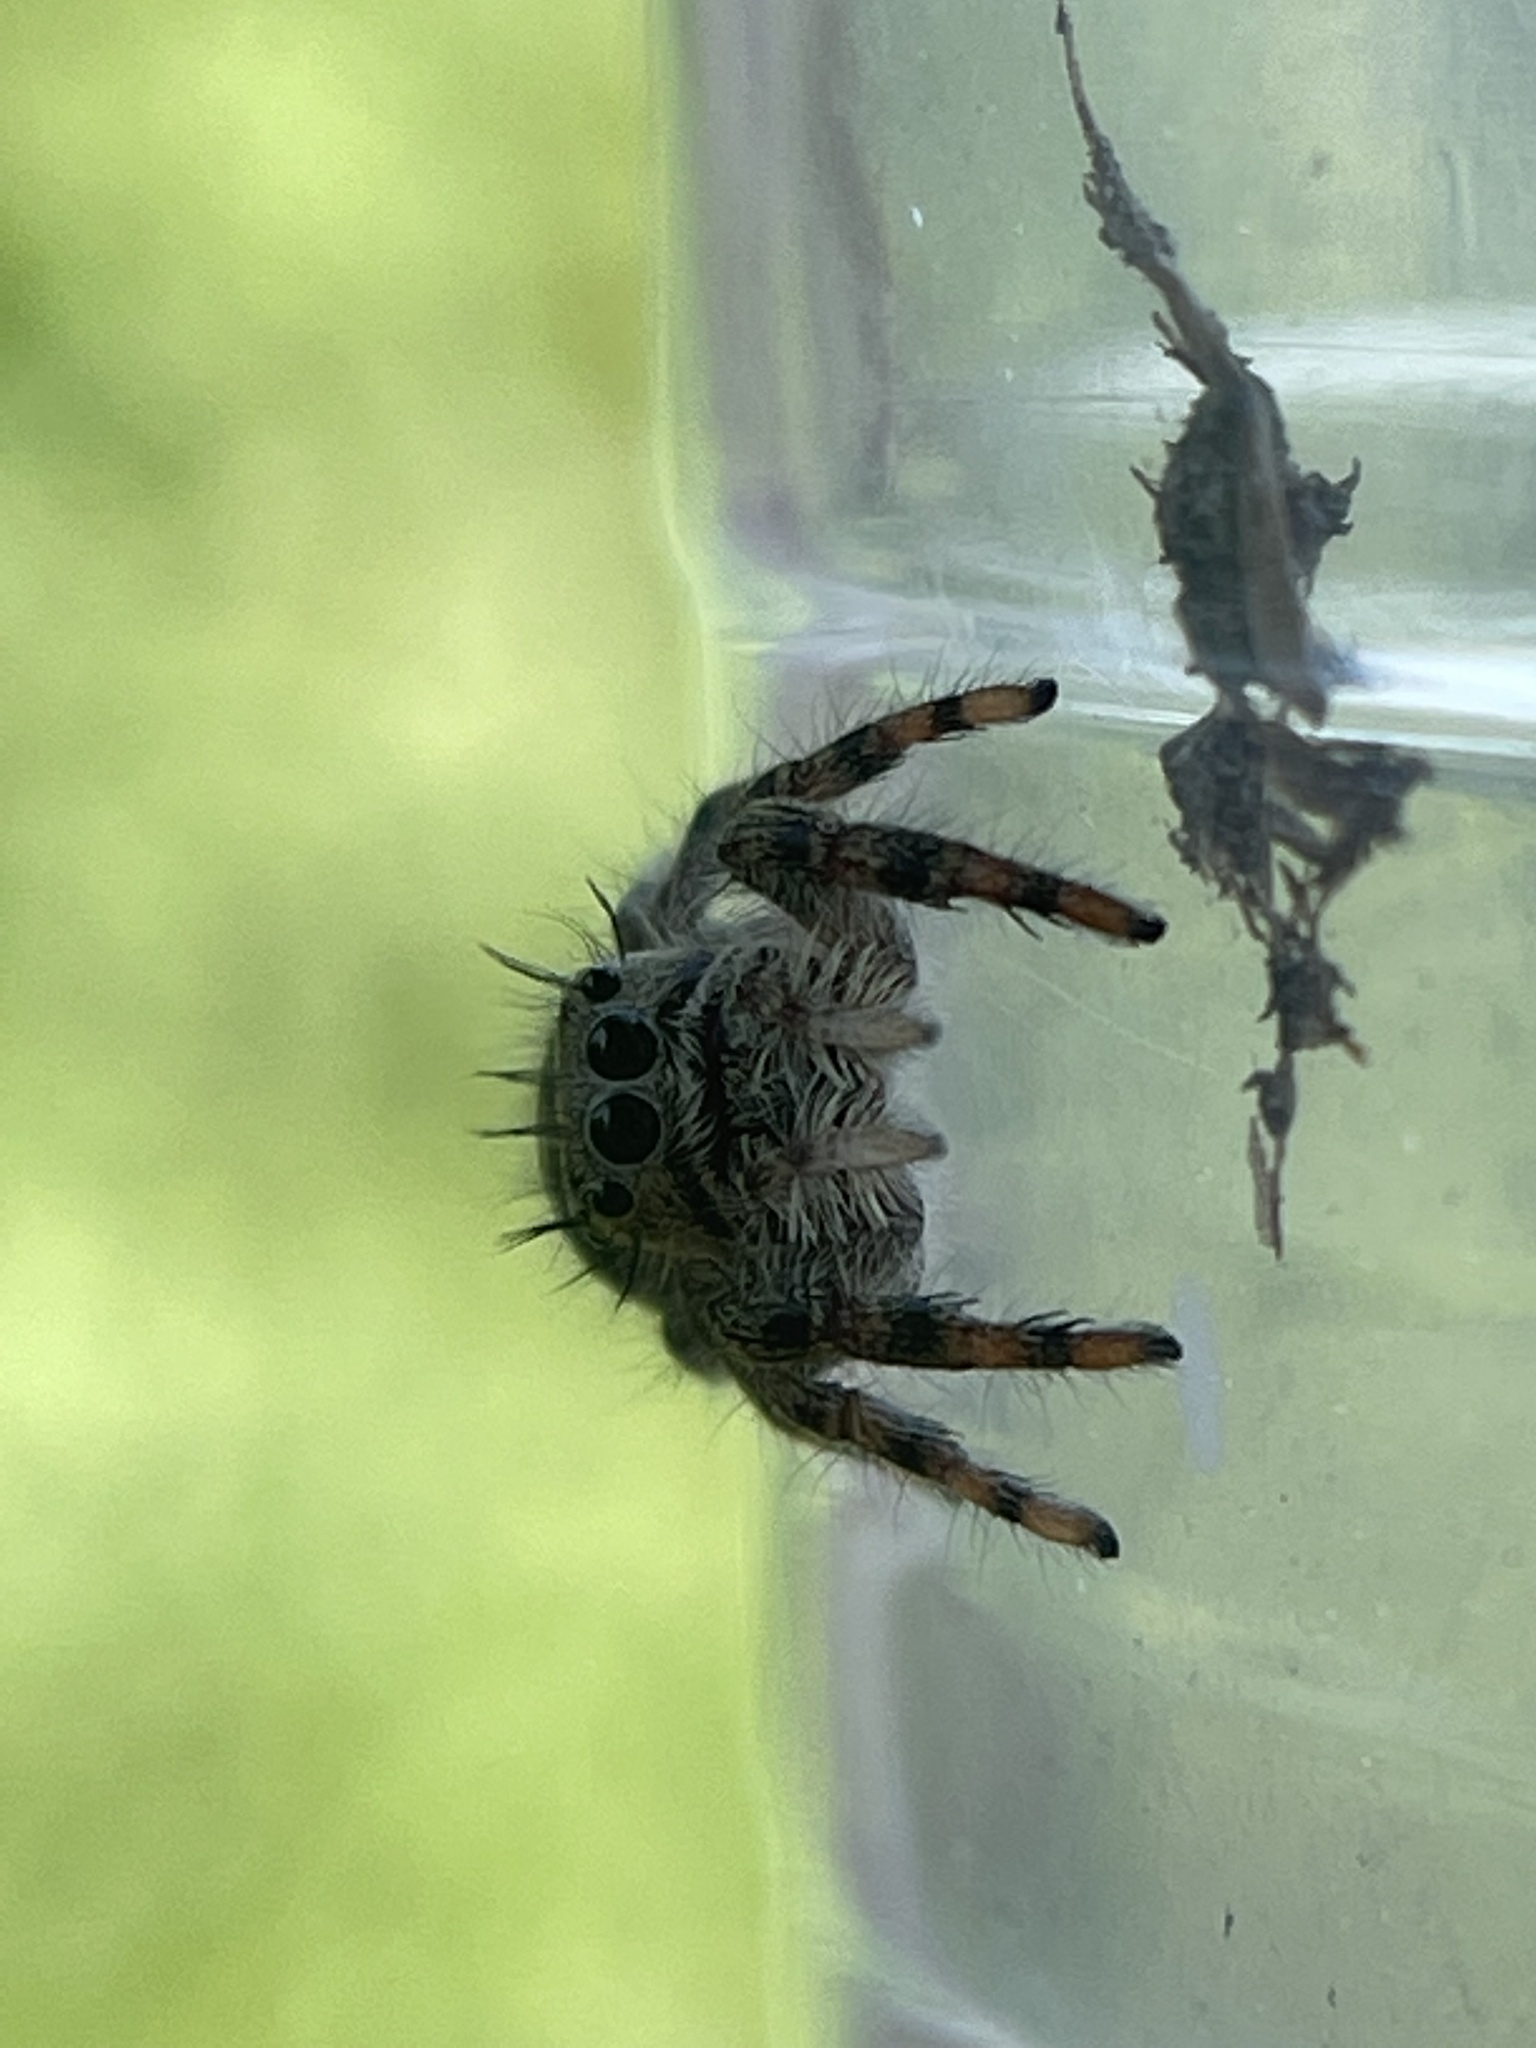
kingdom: Animalia
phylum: Arthropoda
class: Arachnida
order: Araneae
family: Salticidae
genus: Phidippus
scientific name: Phidippus putnami
